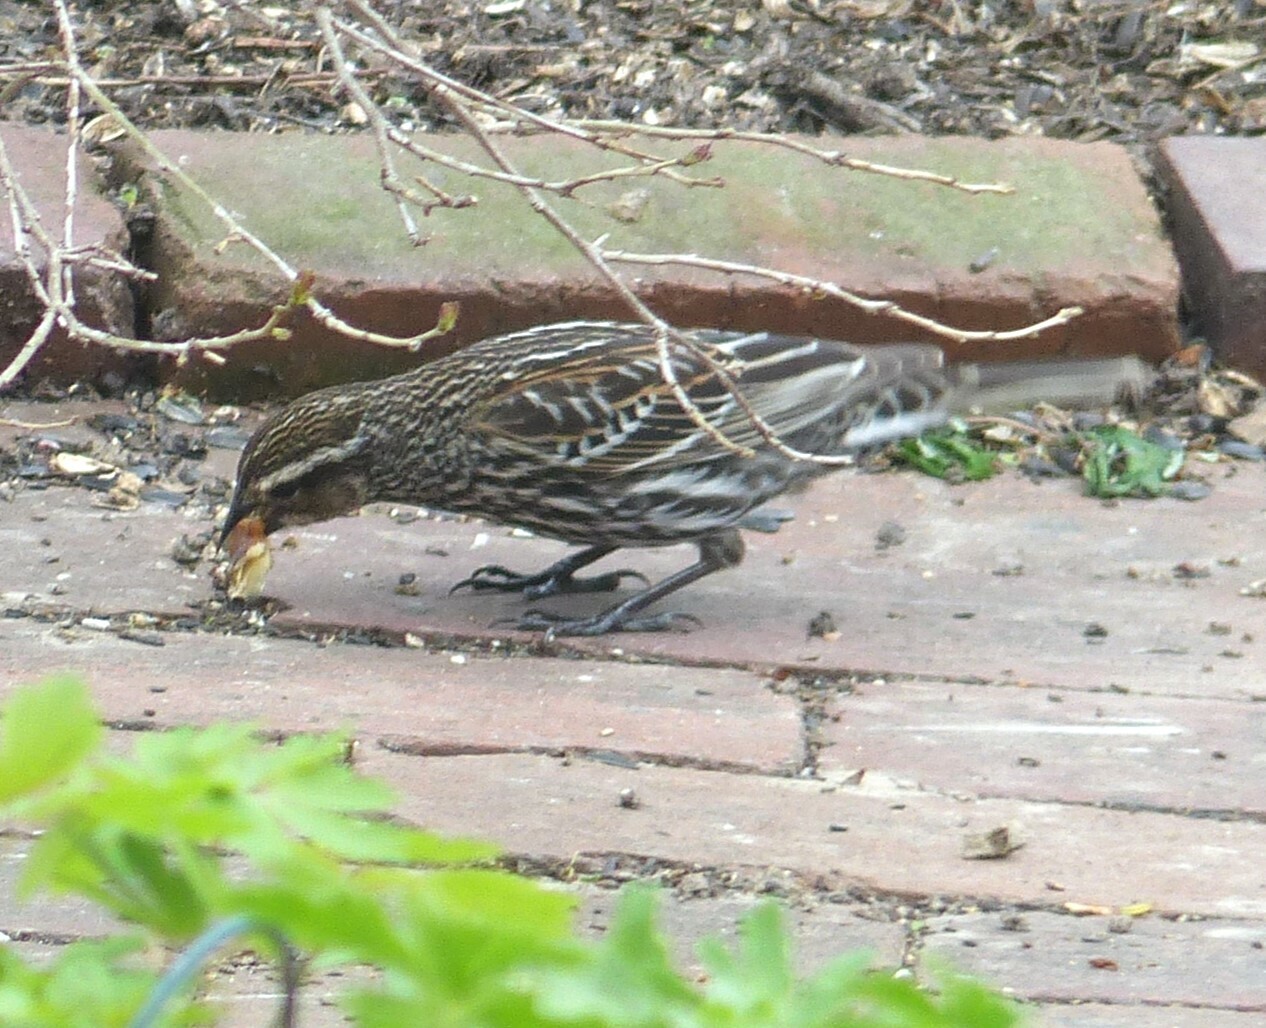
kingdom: Animalia
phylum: Chordata
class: Aves
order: Passeriformes
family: Icteridae
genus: Agelaius
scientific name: Agelaius phoeniceus
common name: Red-winged blackbird
